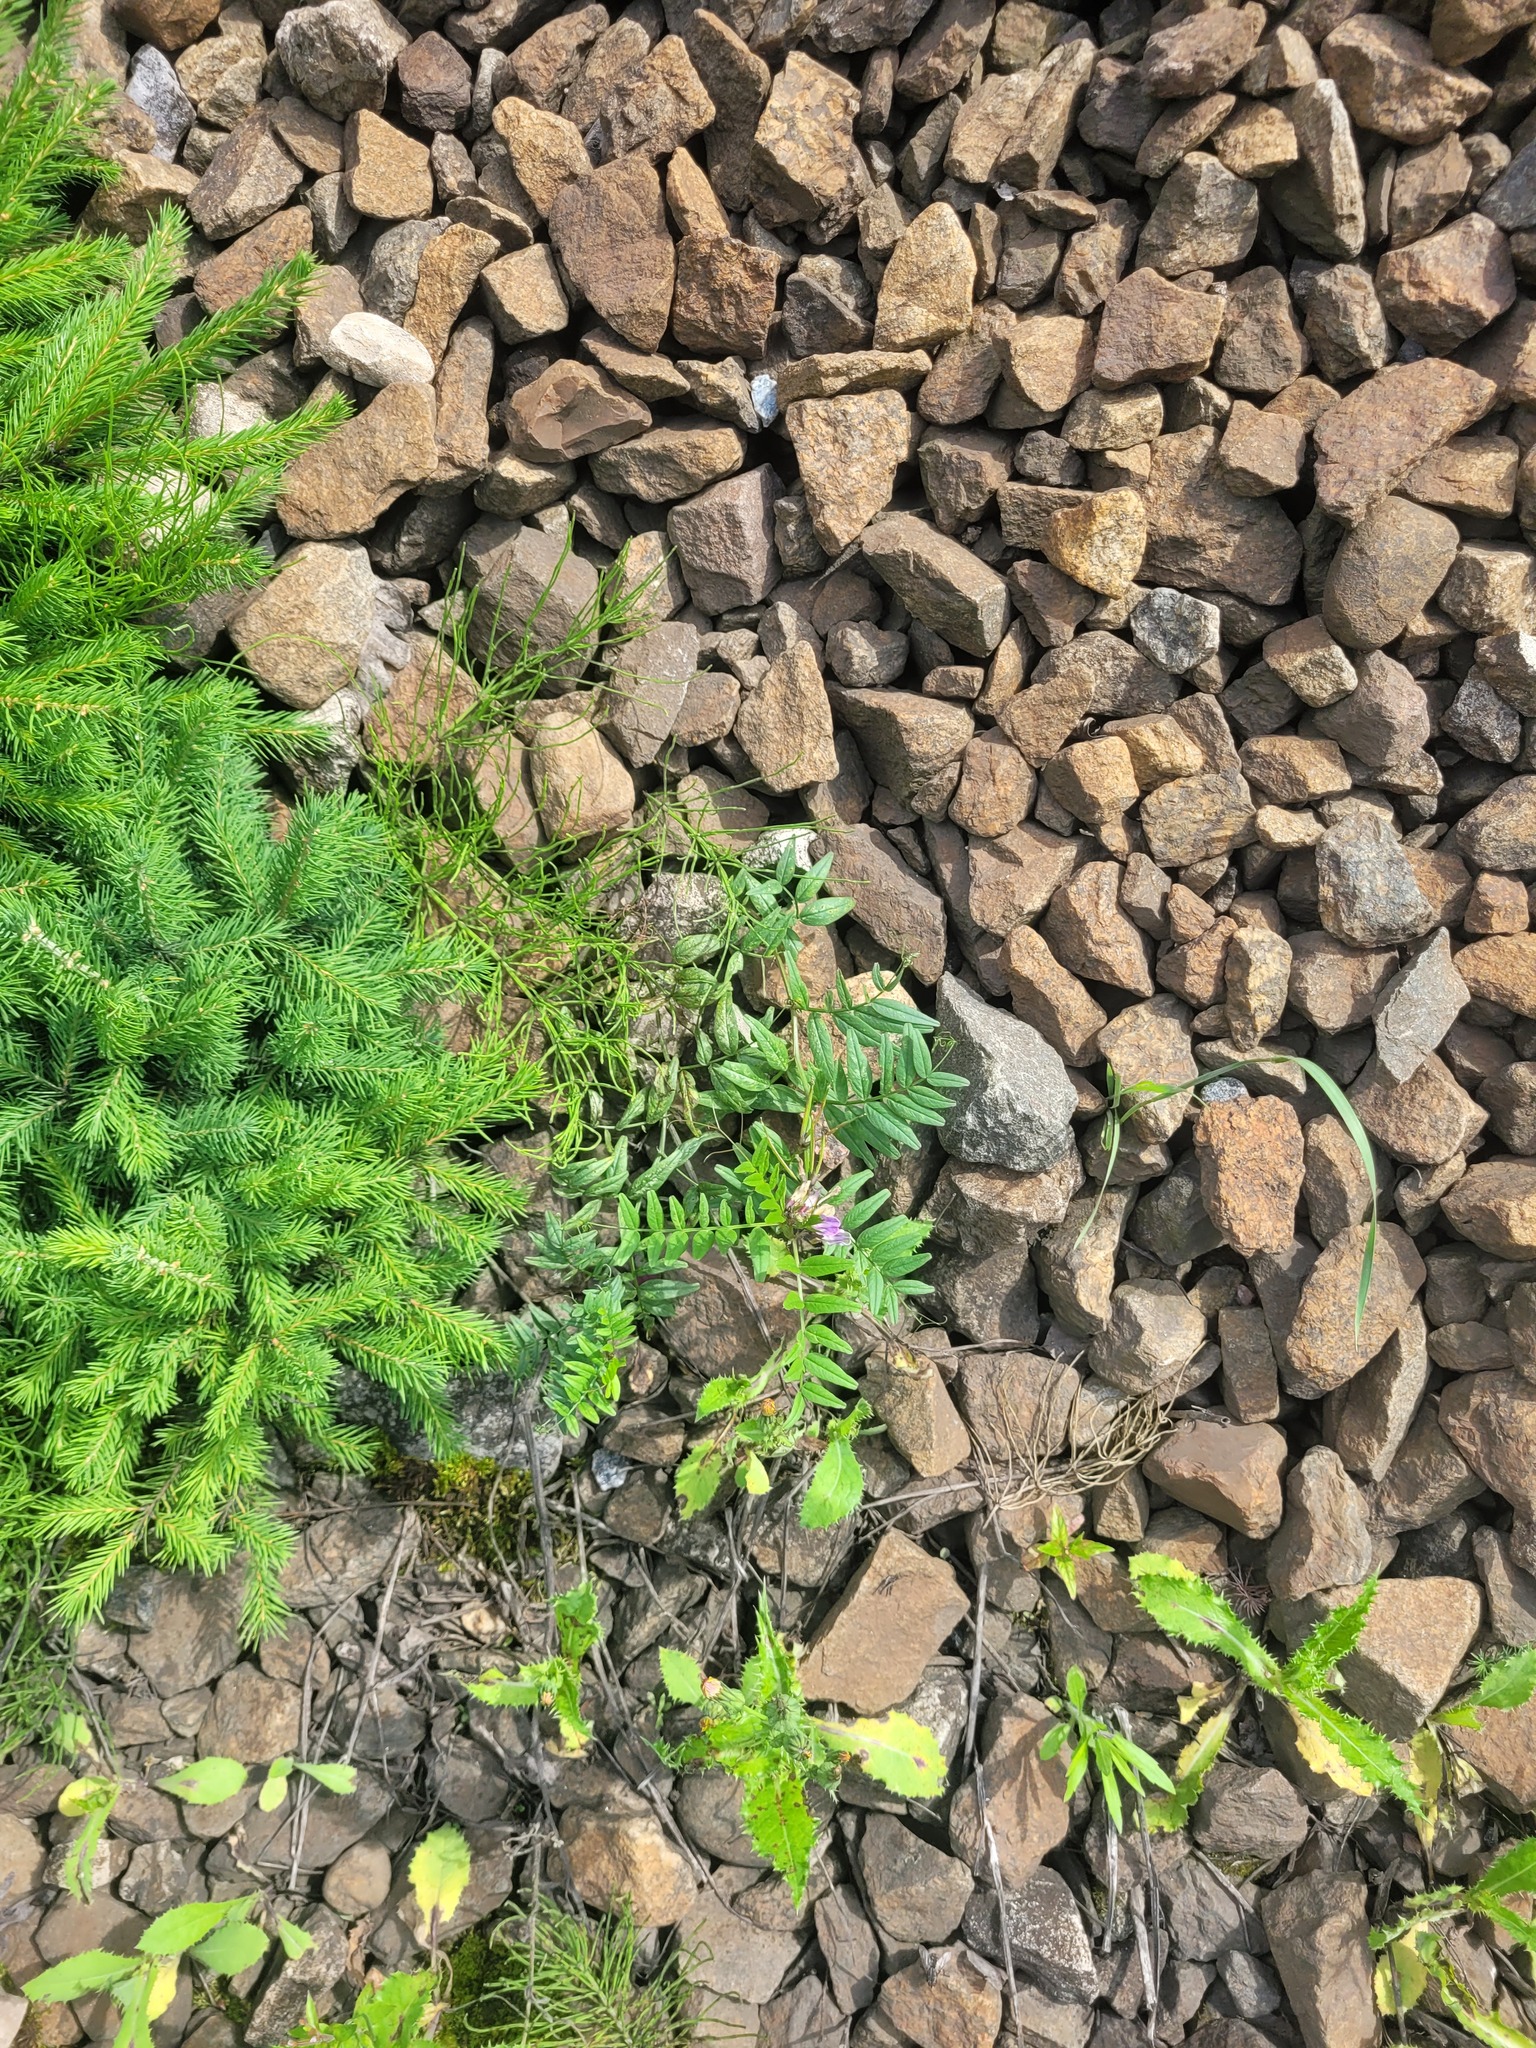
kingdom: Plantae
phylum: Tracheophyta
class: Magnoliopsida
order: Fabales
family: Fabaceae
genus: Vicia
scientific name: Vicia sepium
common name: Bush vetch
